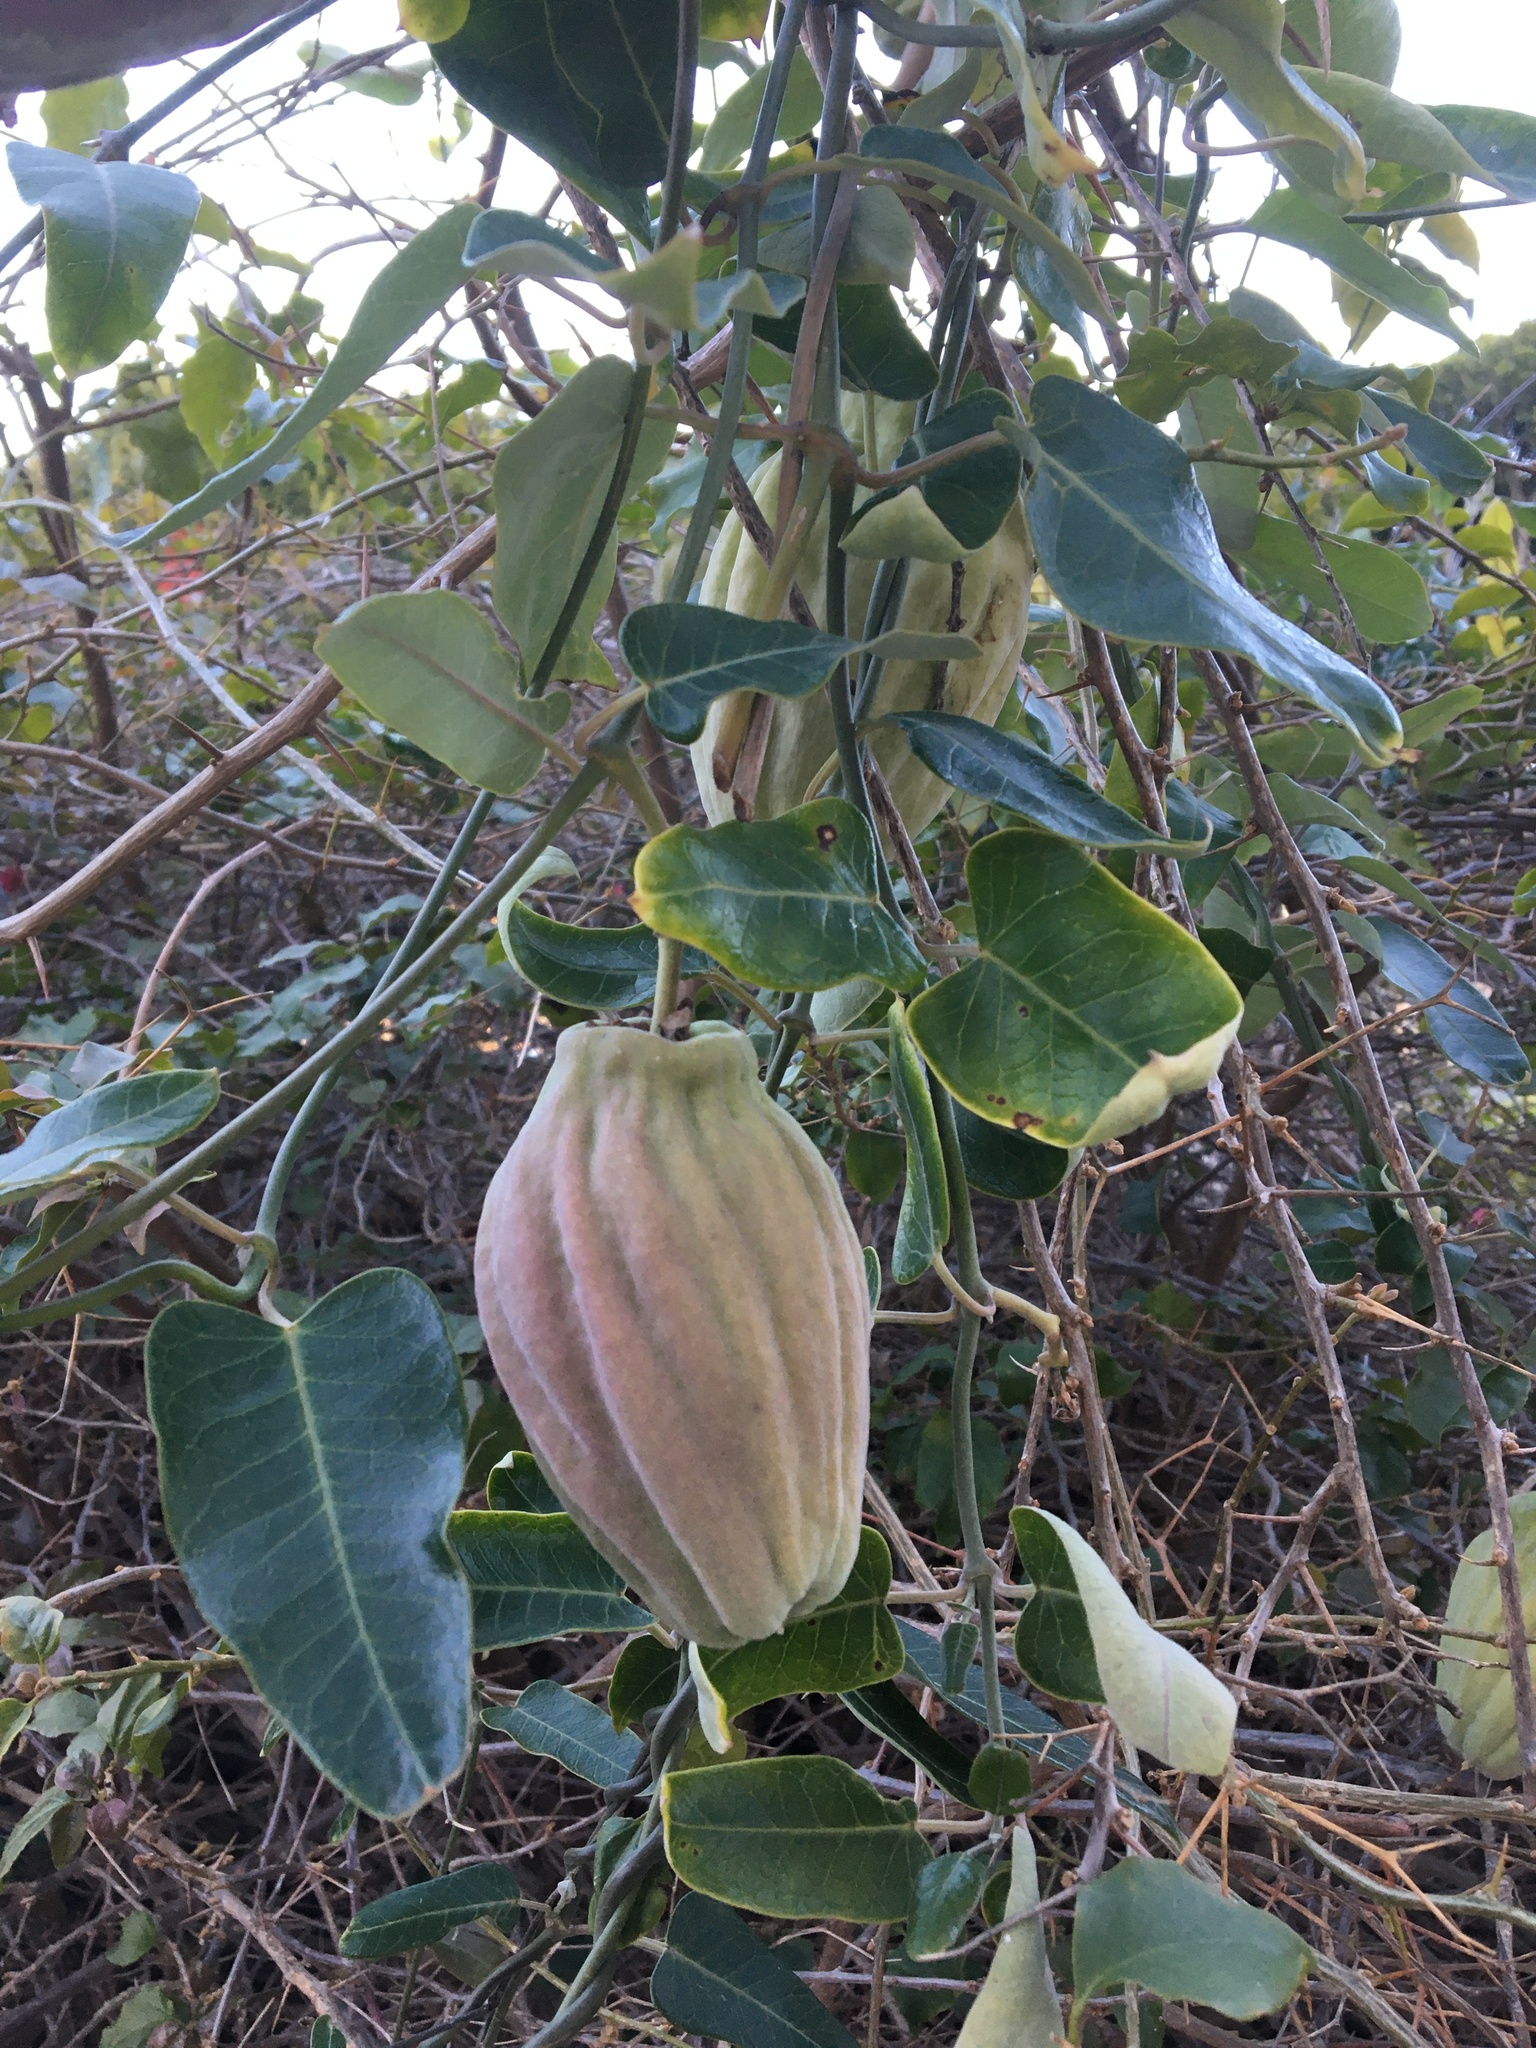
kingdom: Plantae
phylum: Tracheophyta
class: Magnoliopsida
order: Gentianales
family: Apocynaceae
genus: Araujia
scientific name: Araujia sericifera
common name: White bladderflower
